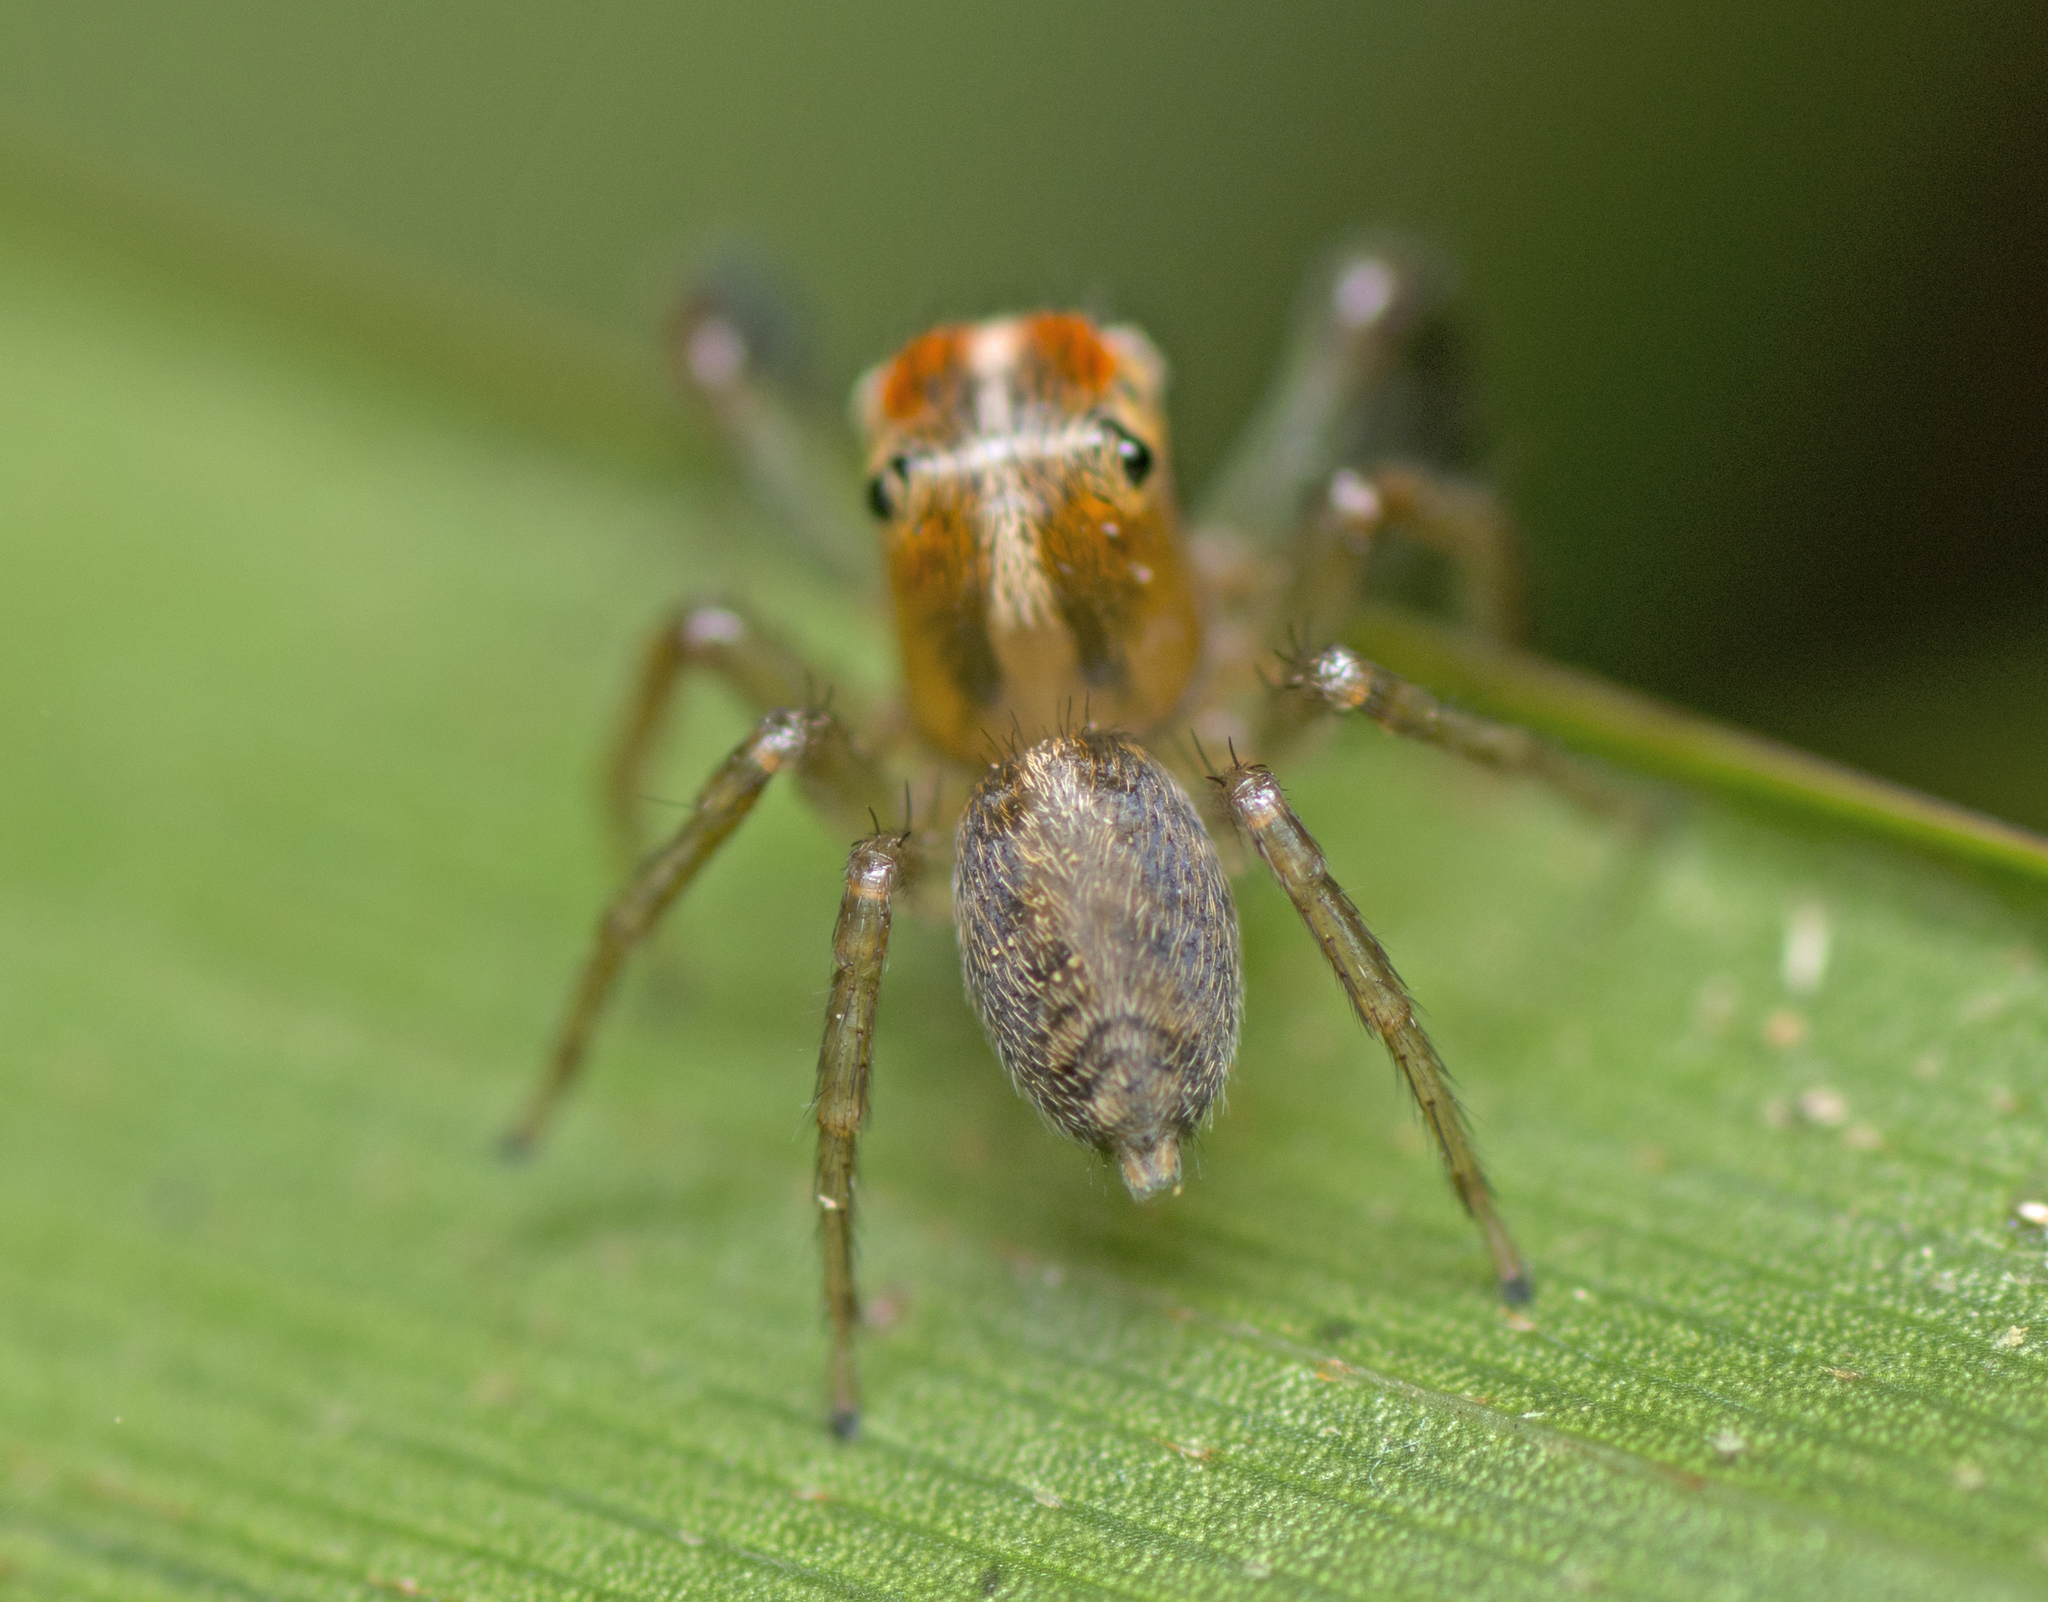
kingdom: Animalia
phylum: Arthropoda
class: Arachnida
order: Araneae
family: Salticidae
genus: Prostheclina
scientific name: Prostheclina bulburin
